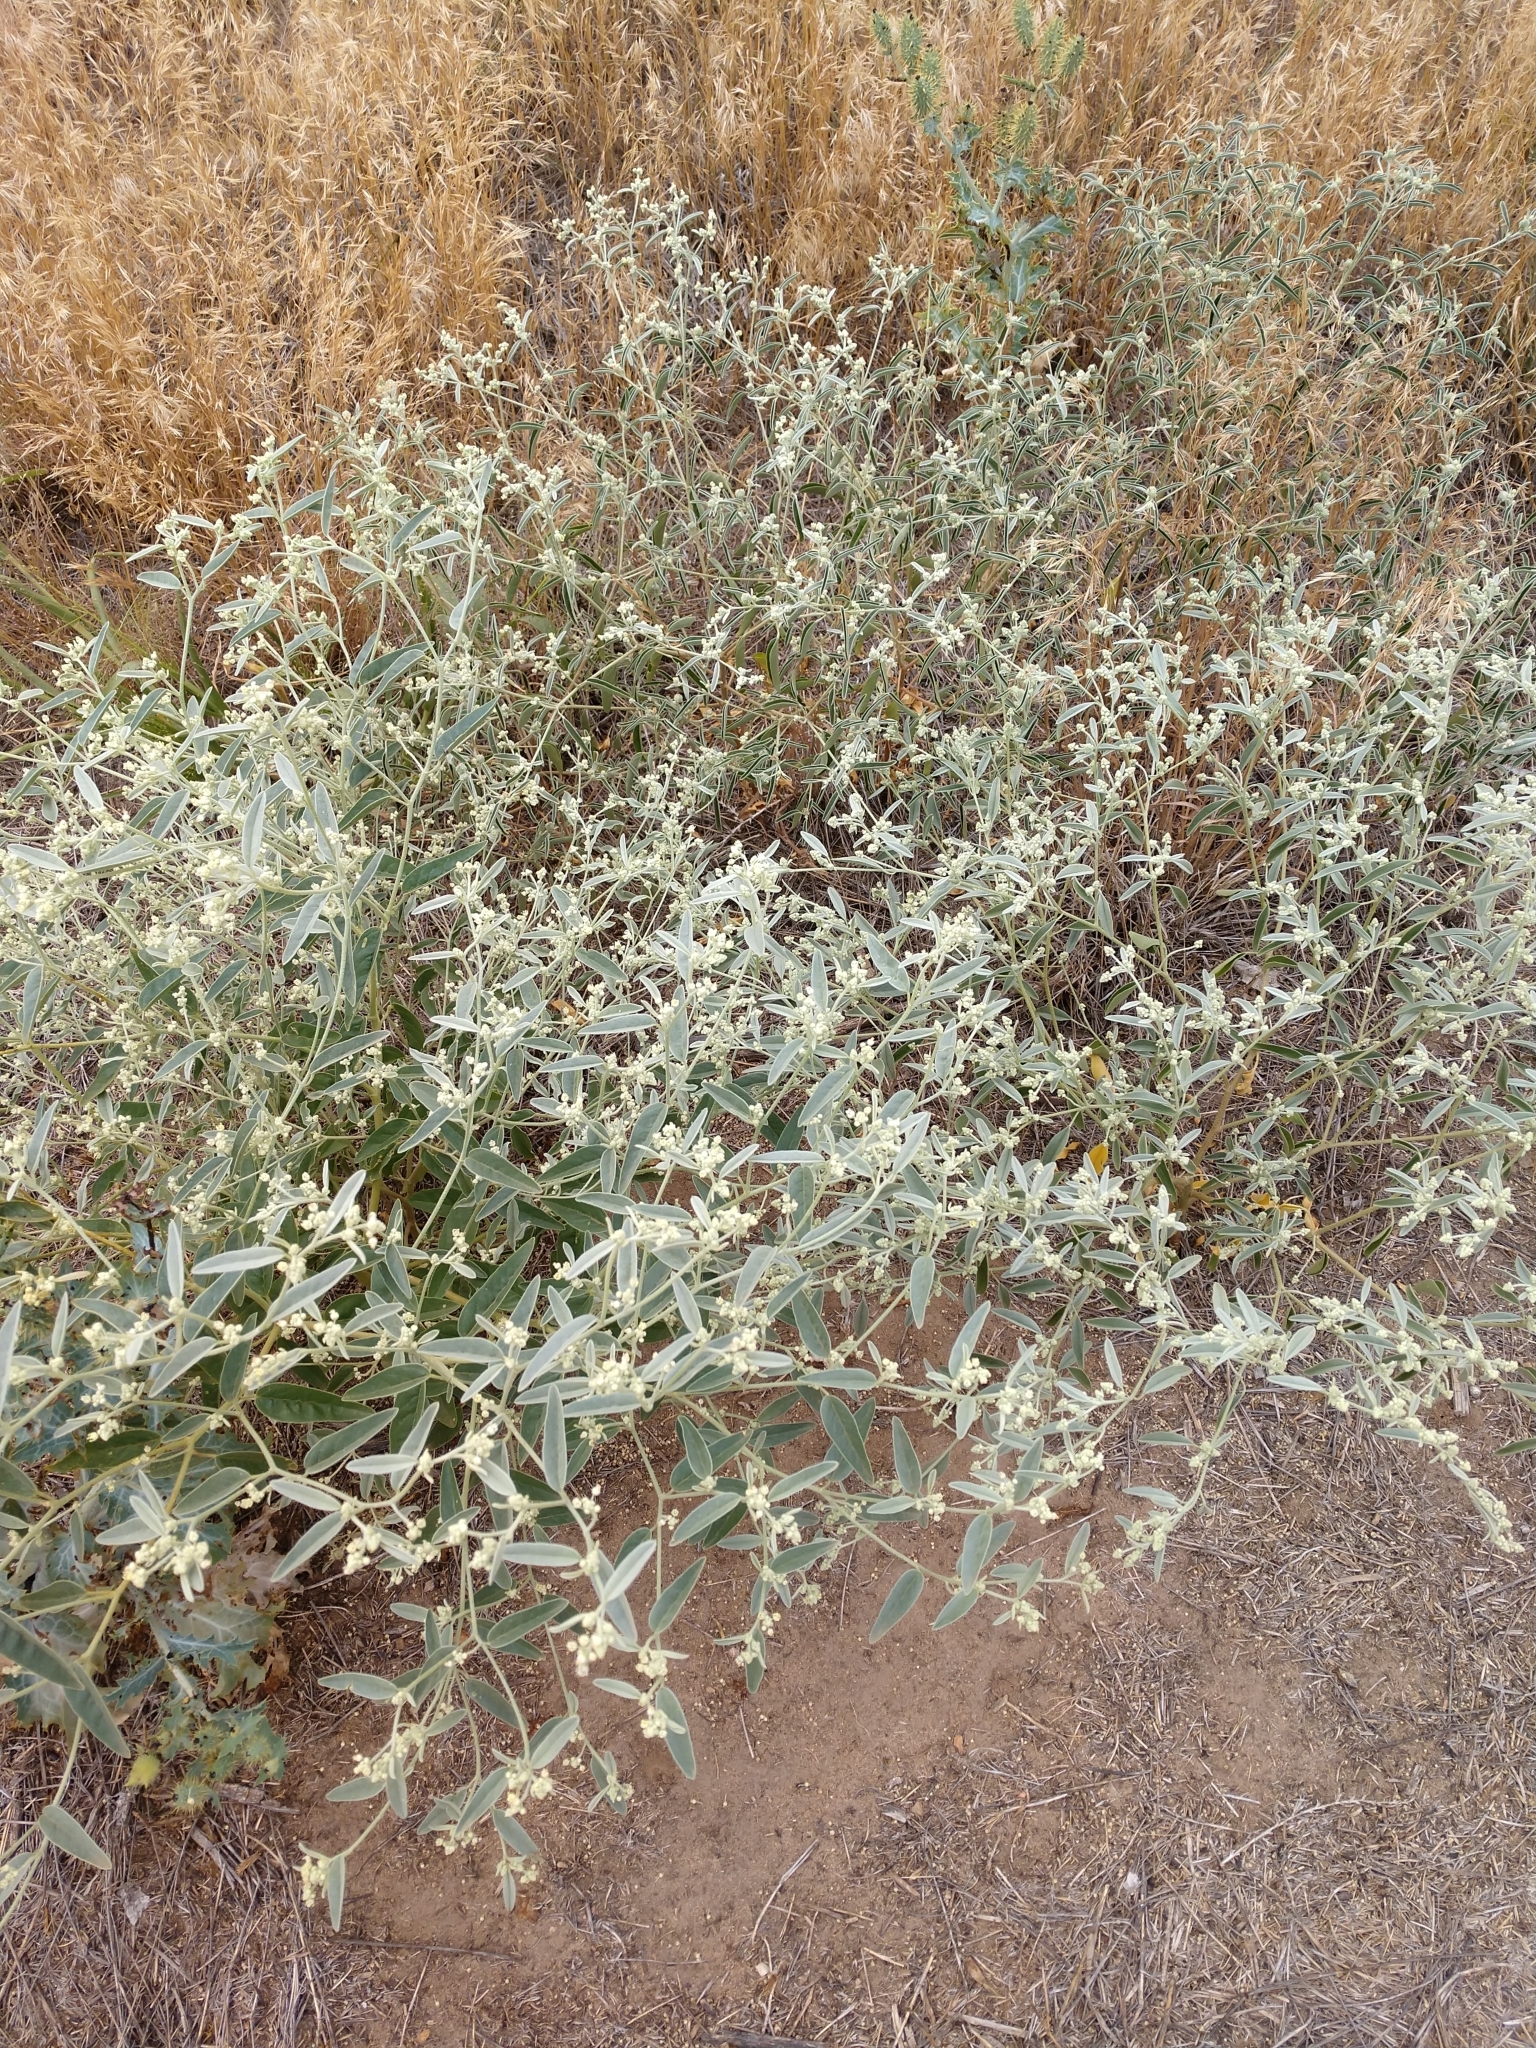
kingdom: Plantae
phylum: Tracheophyta
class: Magnoliopsida
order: Malpighiales
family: Euphorbiaceae
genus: Croton
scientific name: Croton texensis
